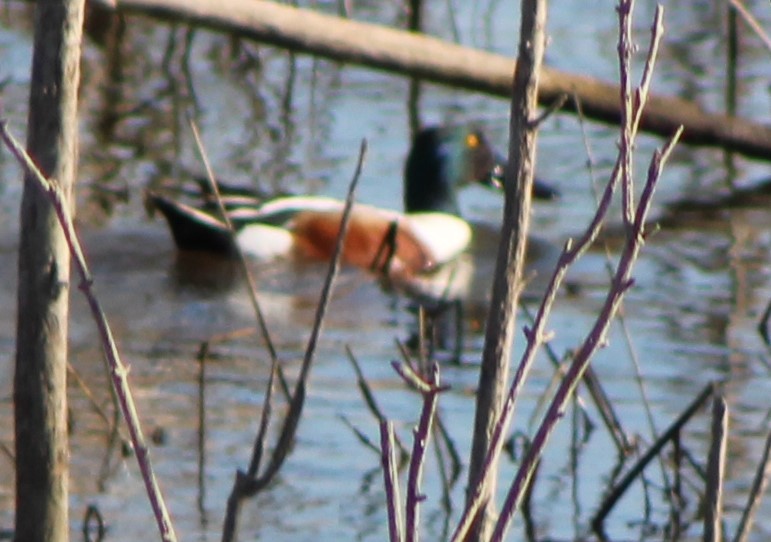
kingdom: Animalia
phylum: Chordata
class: Aves
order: Anseriformes
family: Anatidae
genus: Spatula
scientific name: Spatula clypeata
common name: Northern shoveler
